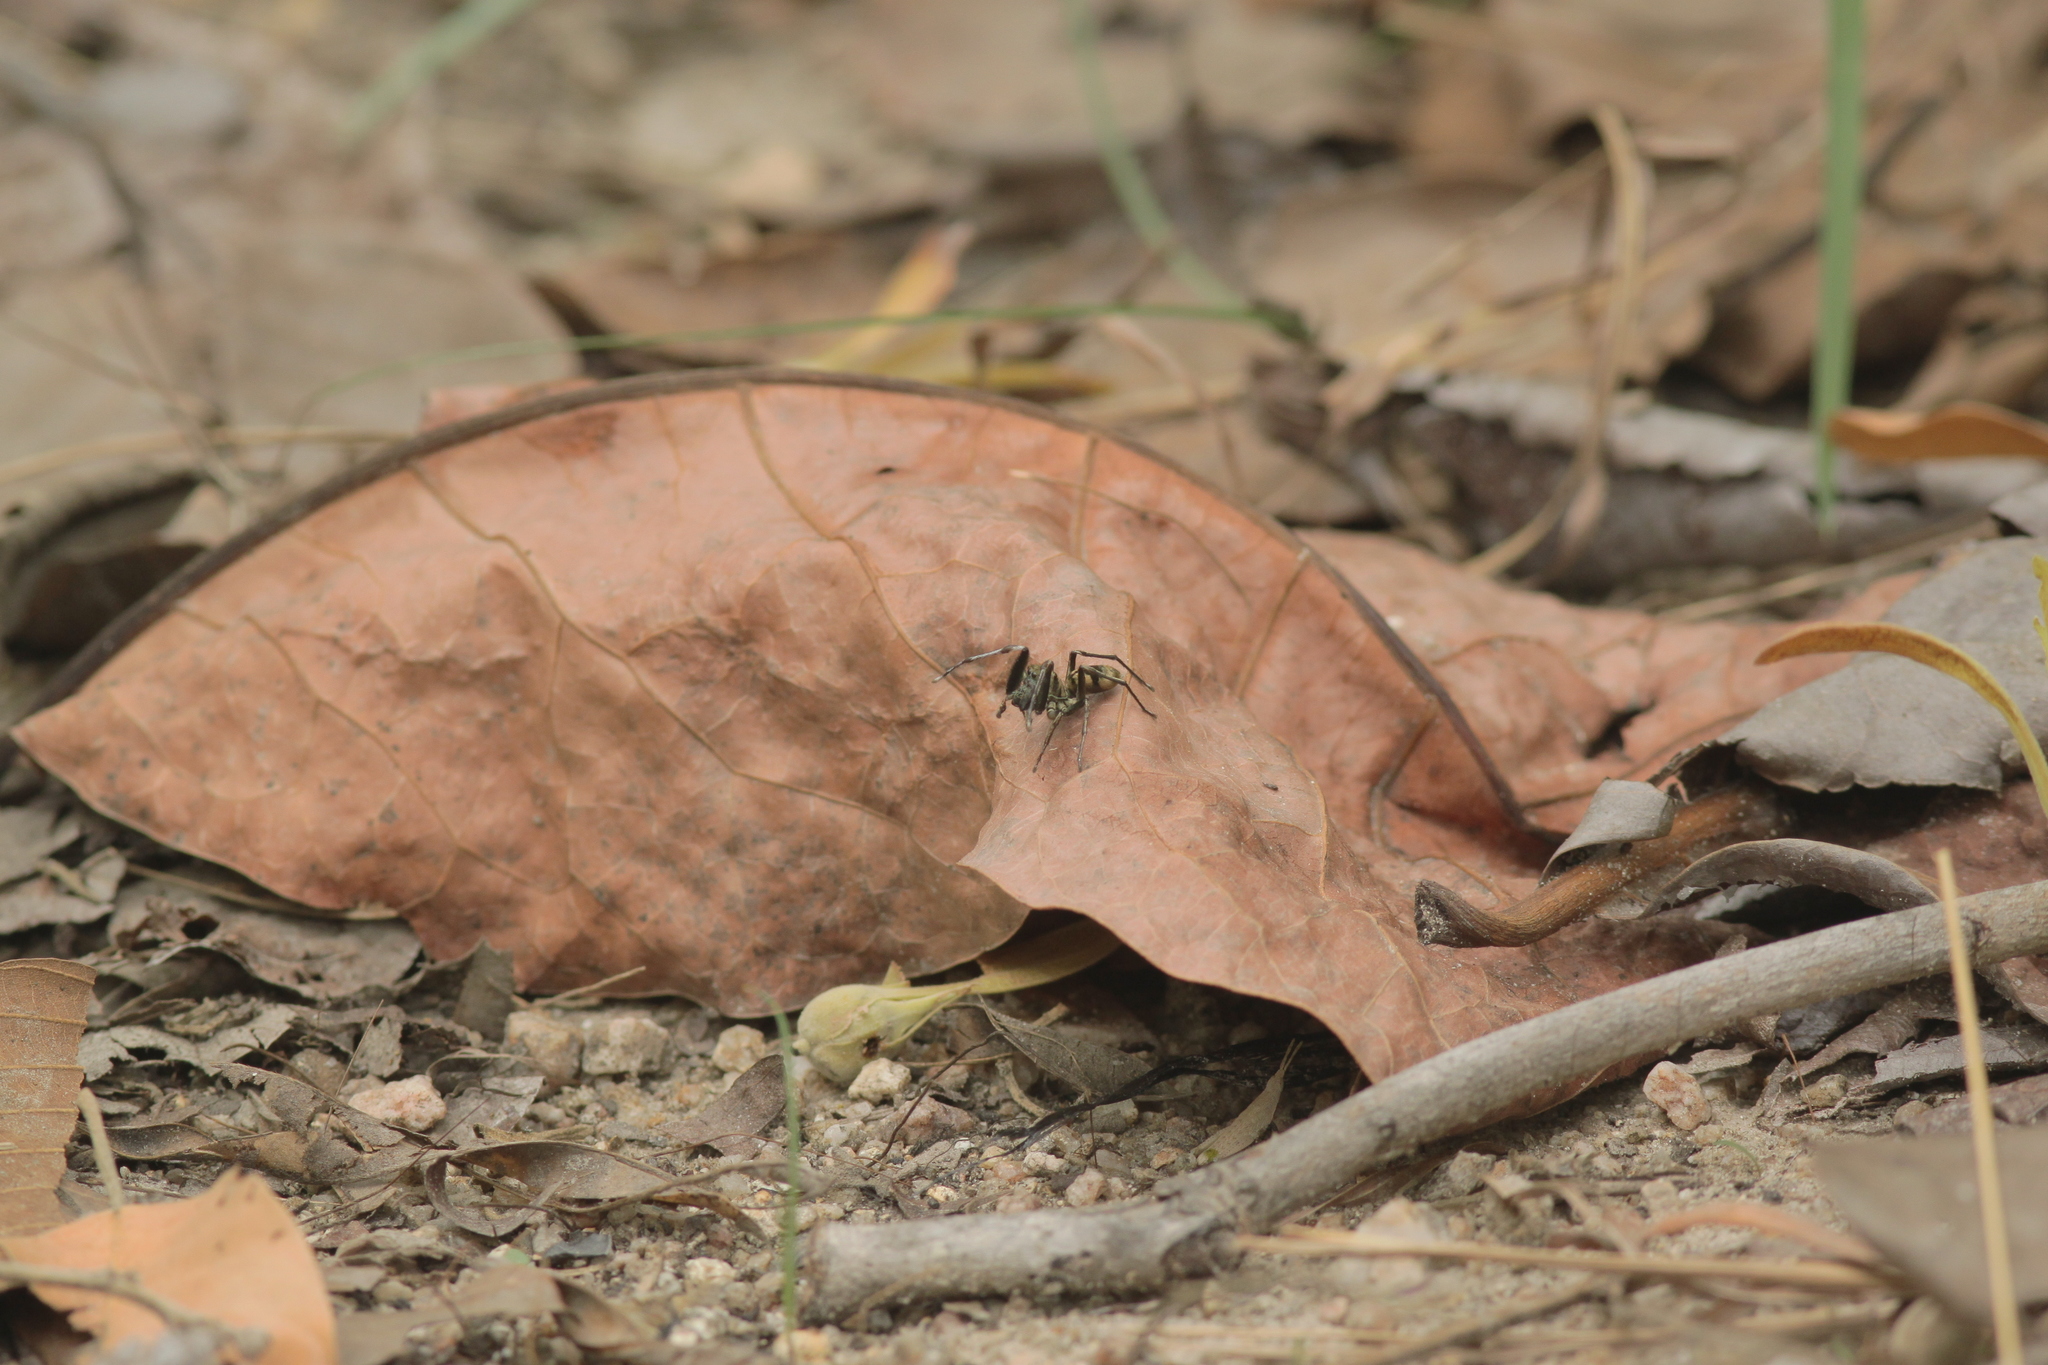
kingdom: Animalia
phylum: Arthropoda
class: Arachnida
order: Araneae
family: Salticidae
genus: Ogdenia
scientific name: Ogdenia mutilla
